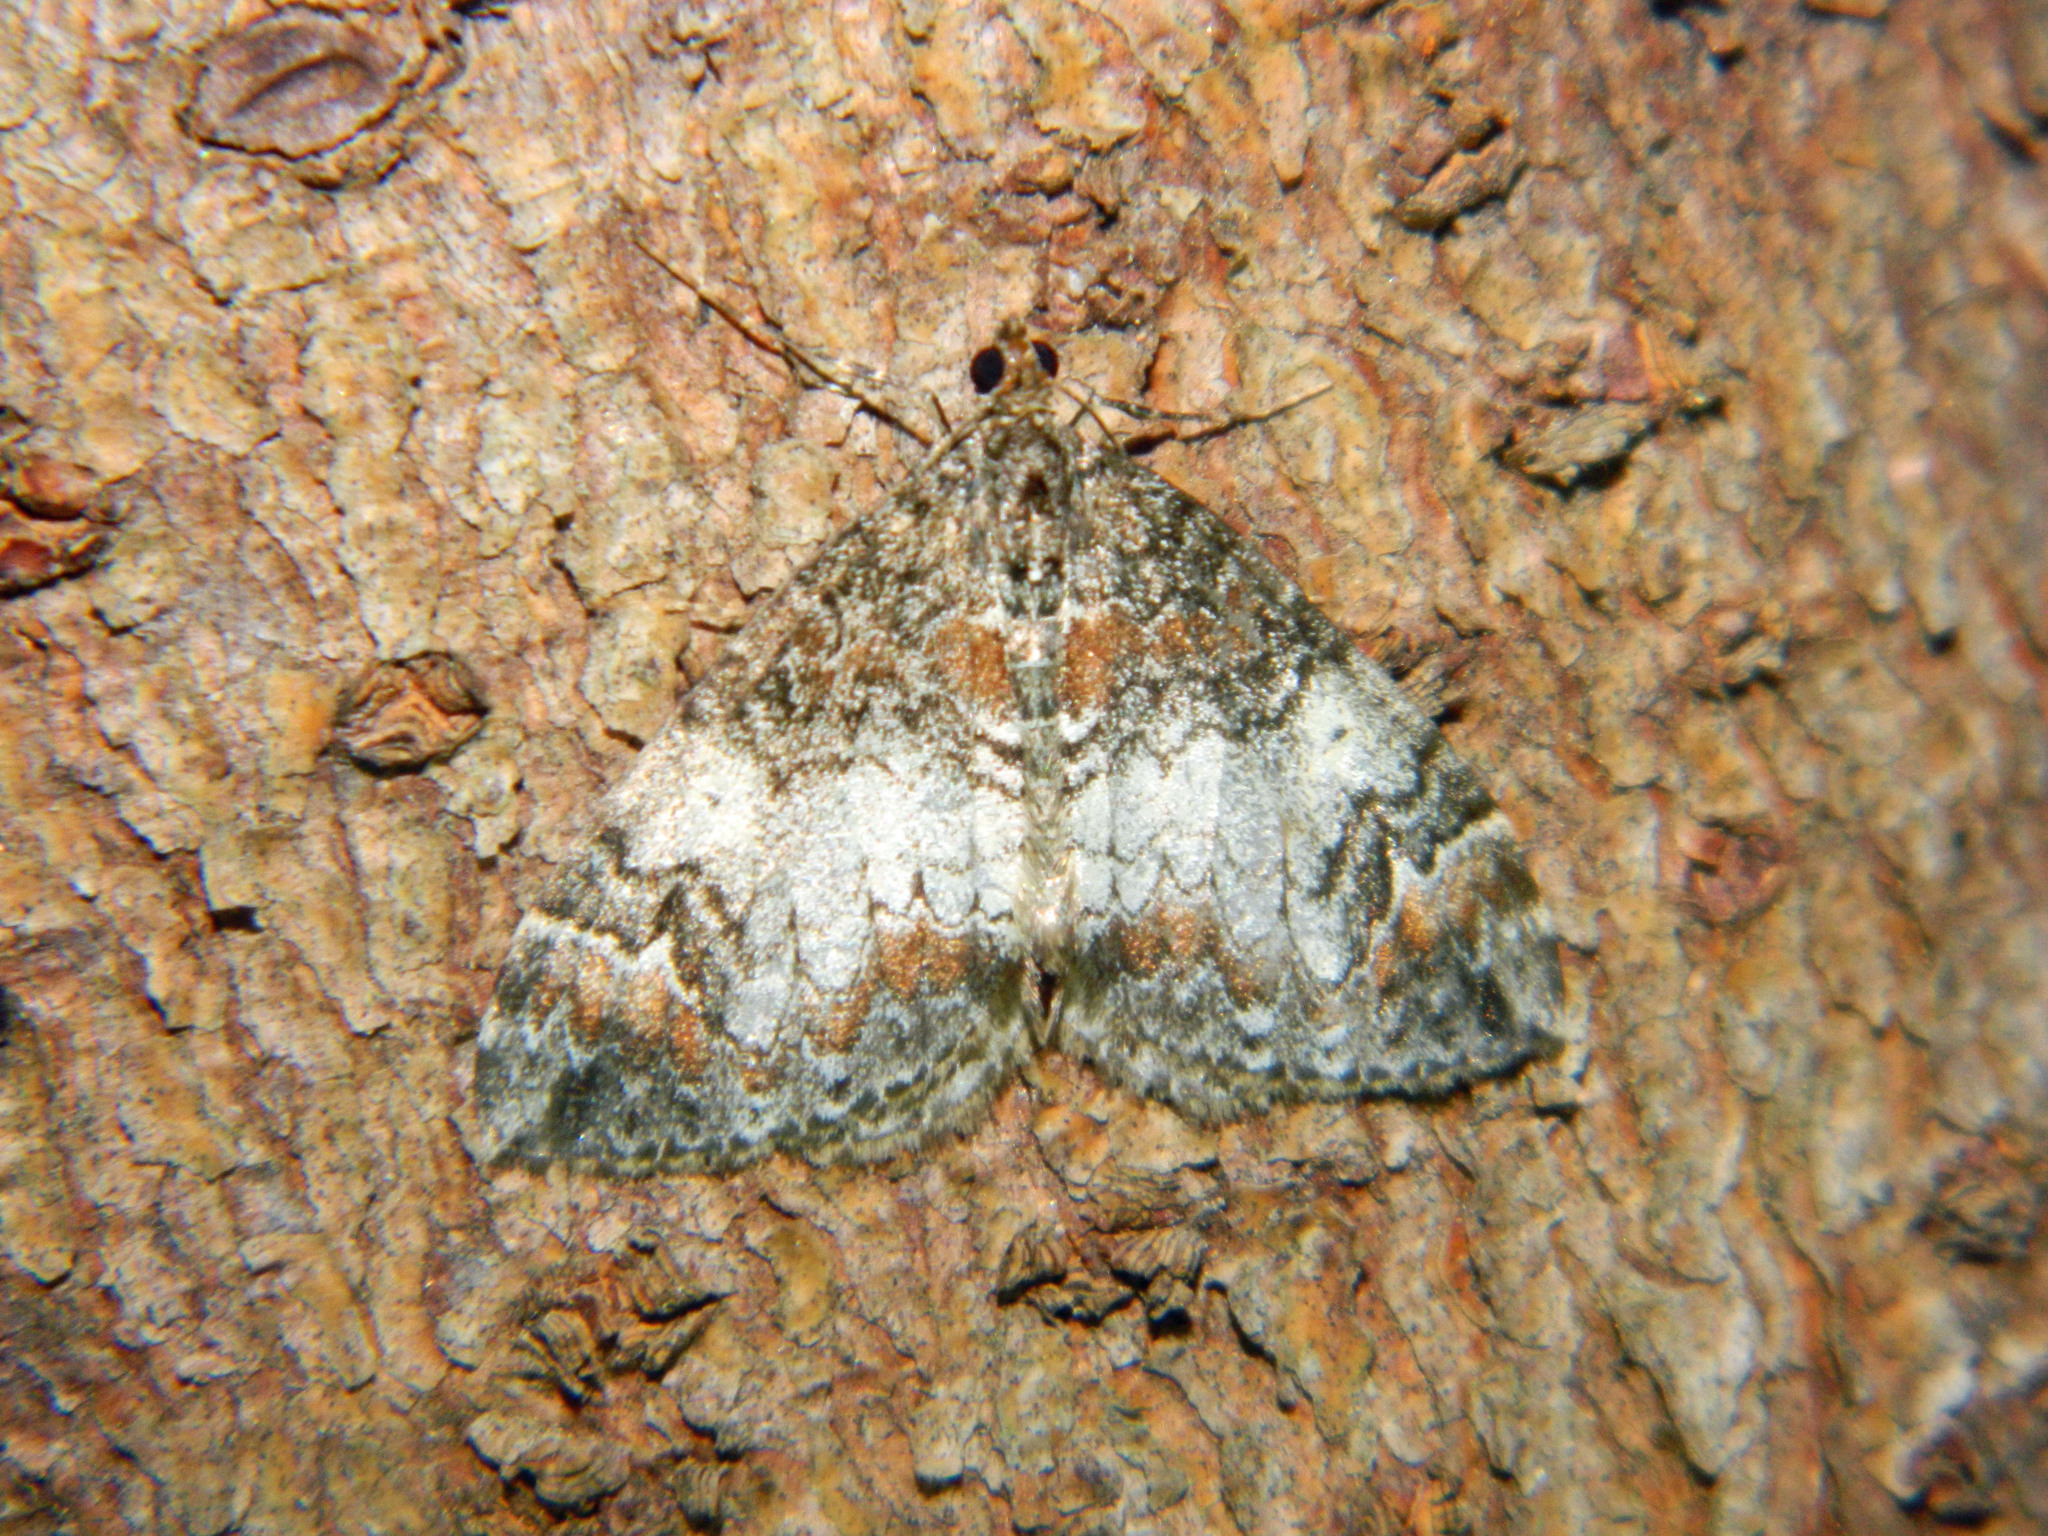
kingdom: Animalia
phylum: Arthropoda
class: Insecta
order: Lepidoptera
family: Geometridae
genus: Dysstroma
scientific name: Dysstroma truncata
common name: Common marbled carpet
